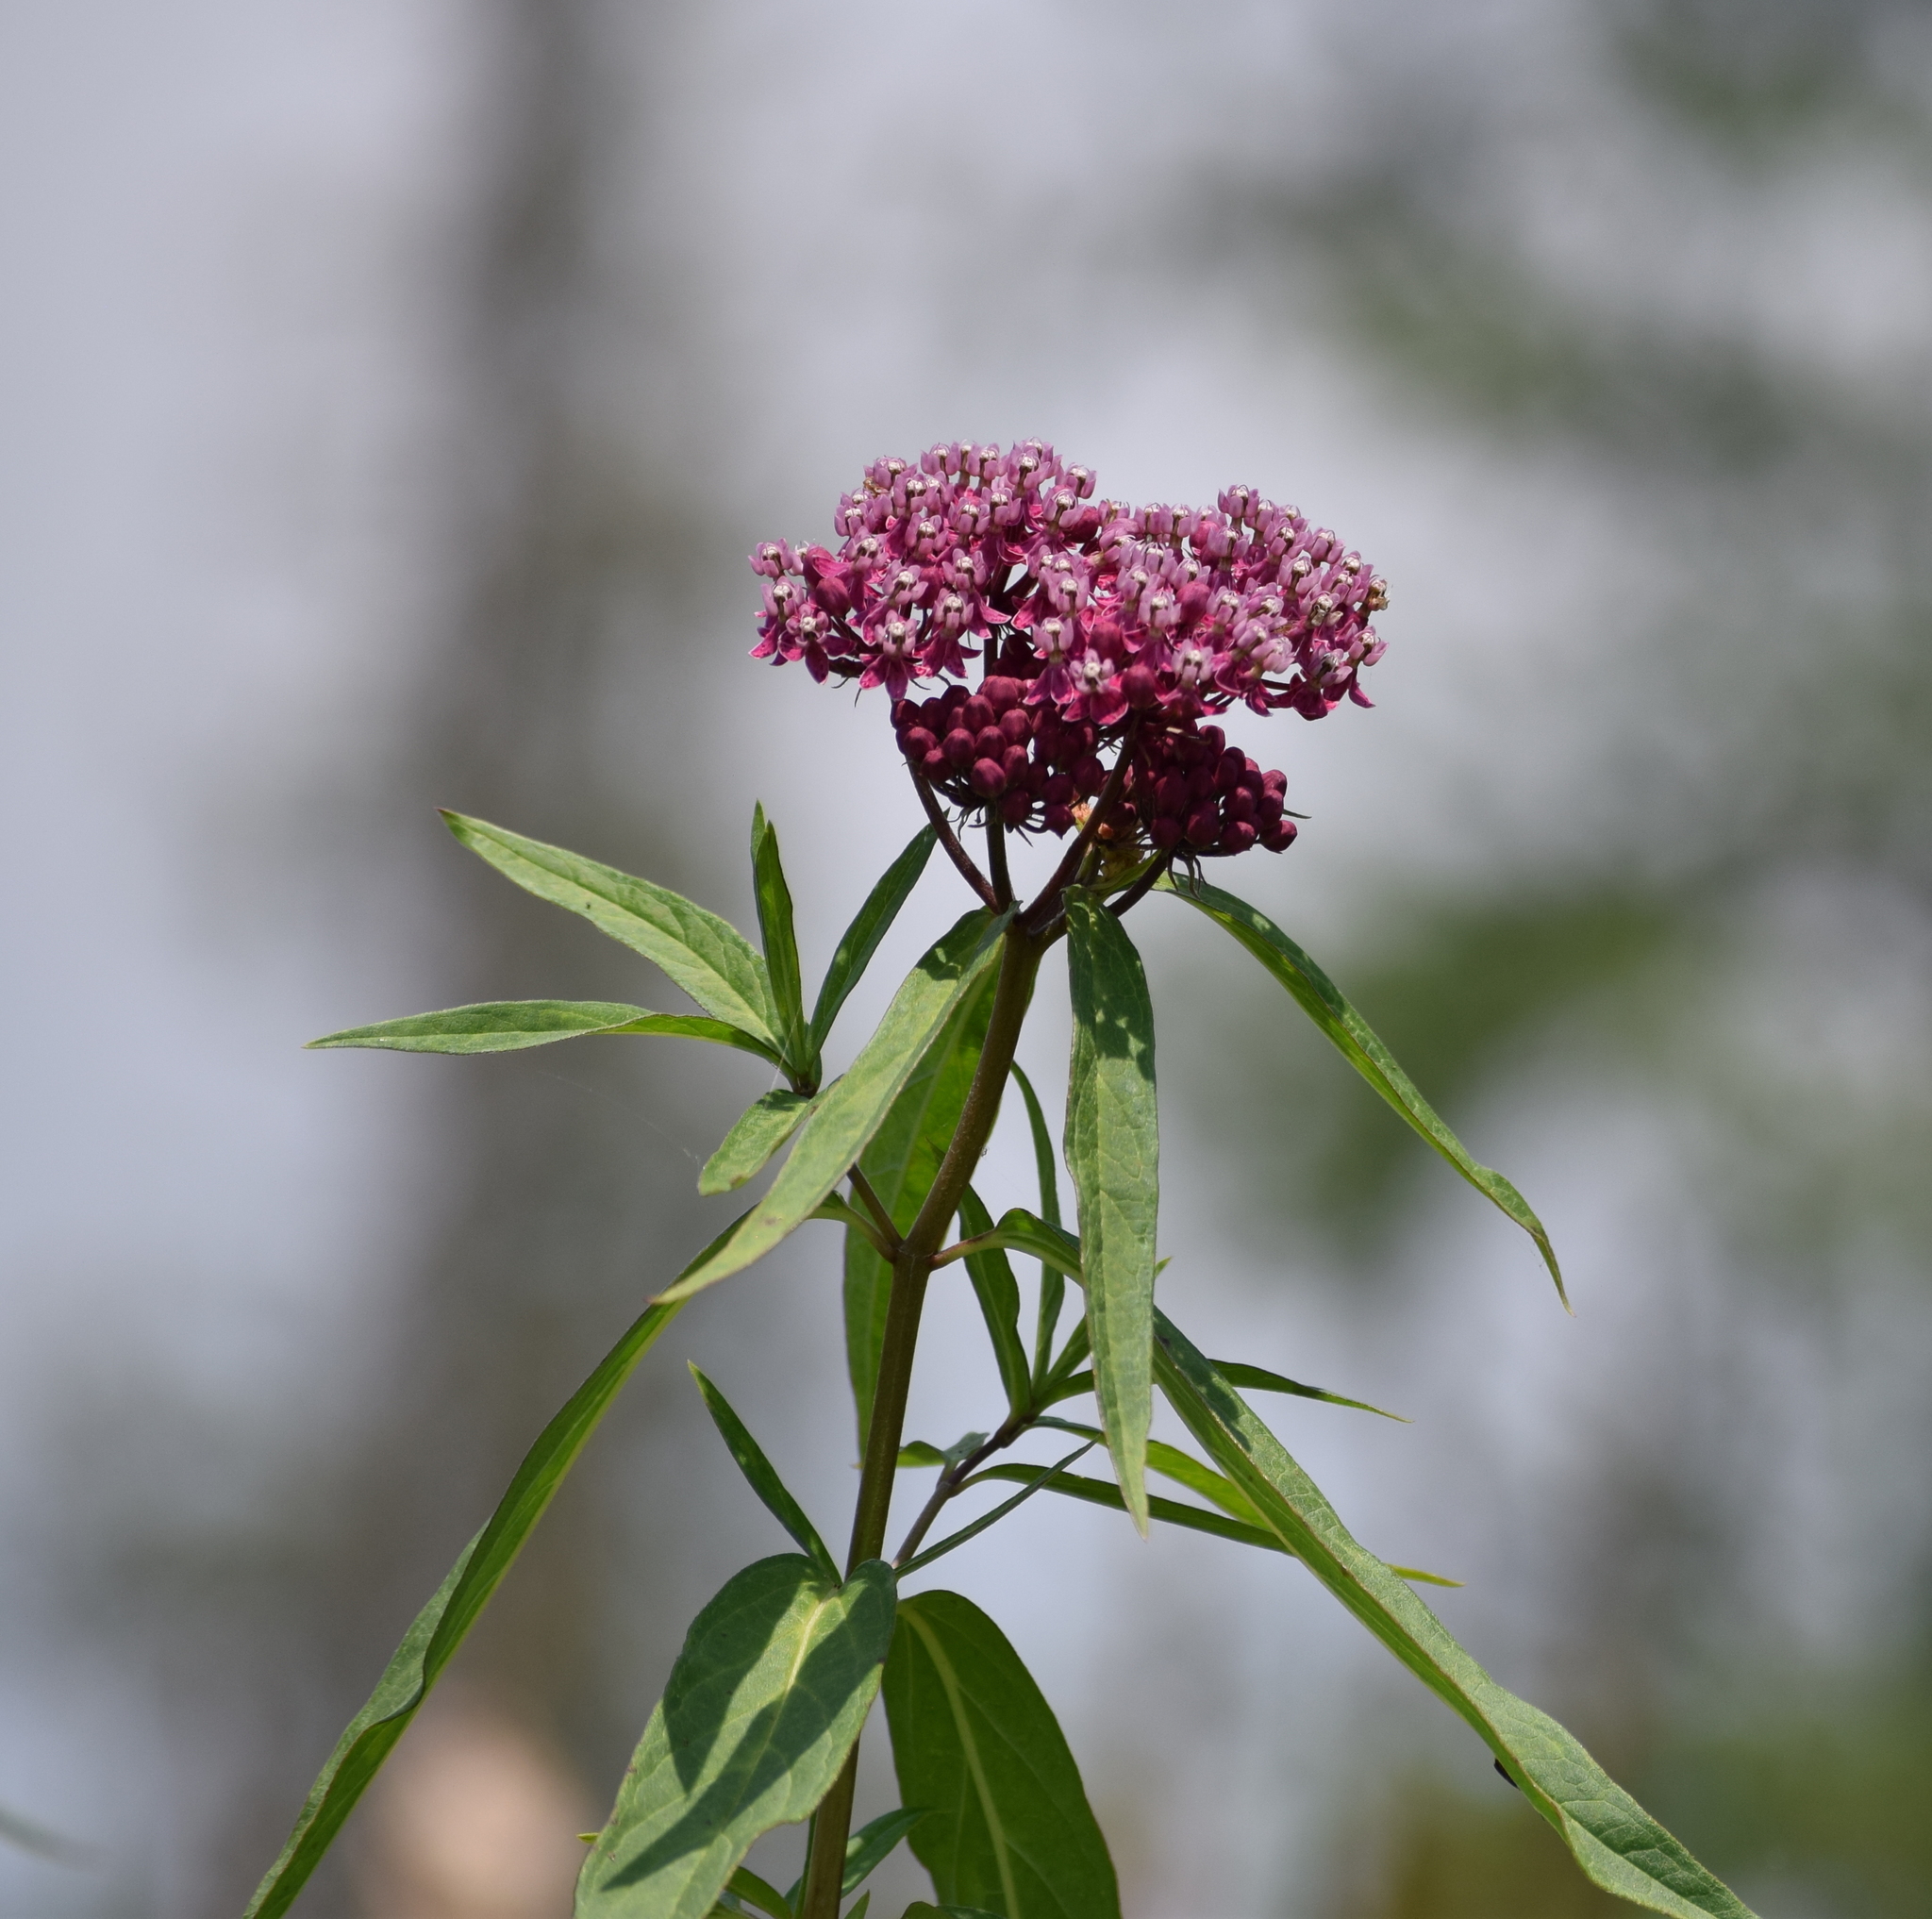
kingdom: Plantae
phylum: Tracheophyta
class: Magnoliopsida
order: Gentianales
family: Apocynaceae
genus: Asclepias
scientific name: Asclepias incarnata
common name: Swamp milkweed
